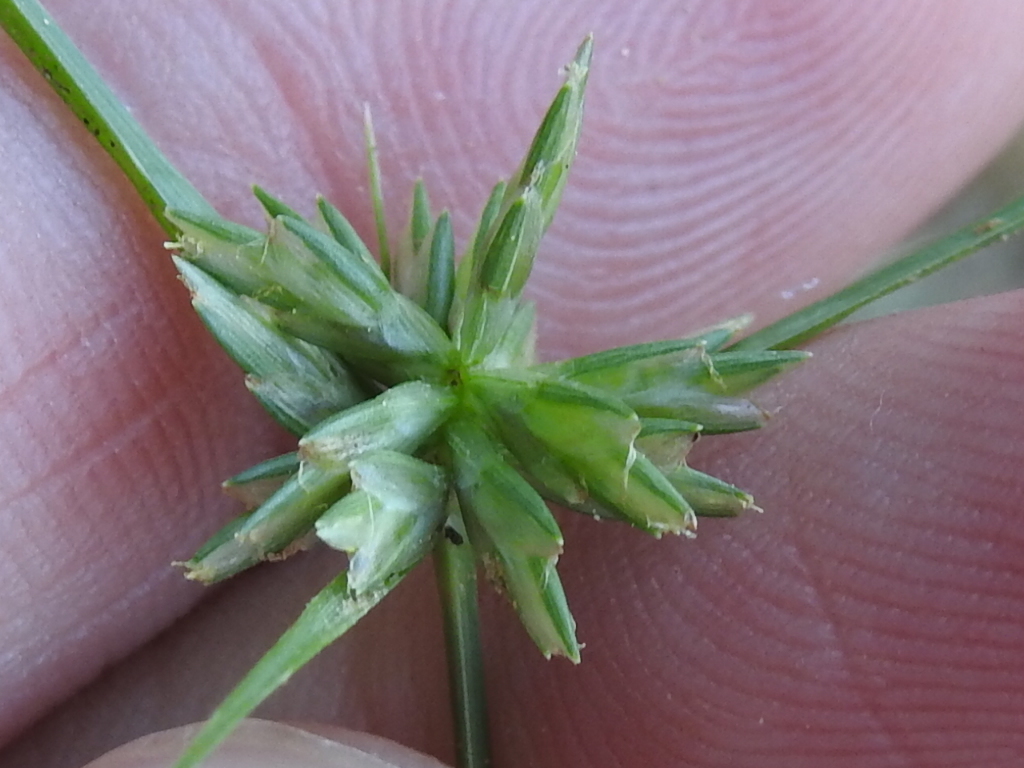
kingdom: Plantae
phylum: Tracheophyta
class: Liliopsida
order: Poales
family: Cyperaceae
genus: Cyperus
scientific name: Cyperus lupulinus
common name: Great plains flatsedge
